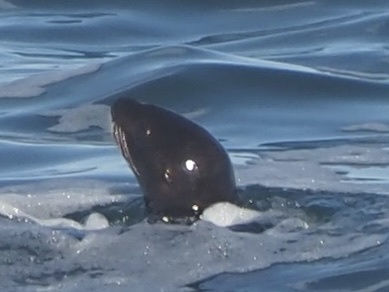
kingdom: Animalia
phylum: Chordata
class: Mammalia
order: Carnivora
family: Otariidae
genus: Eumetopias
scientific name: Eumetopias jubatus
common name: Steller sea lion
